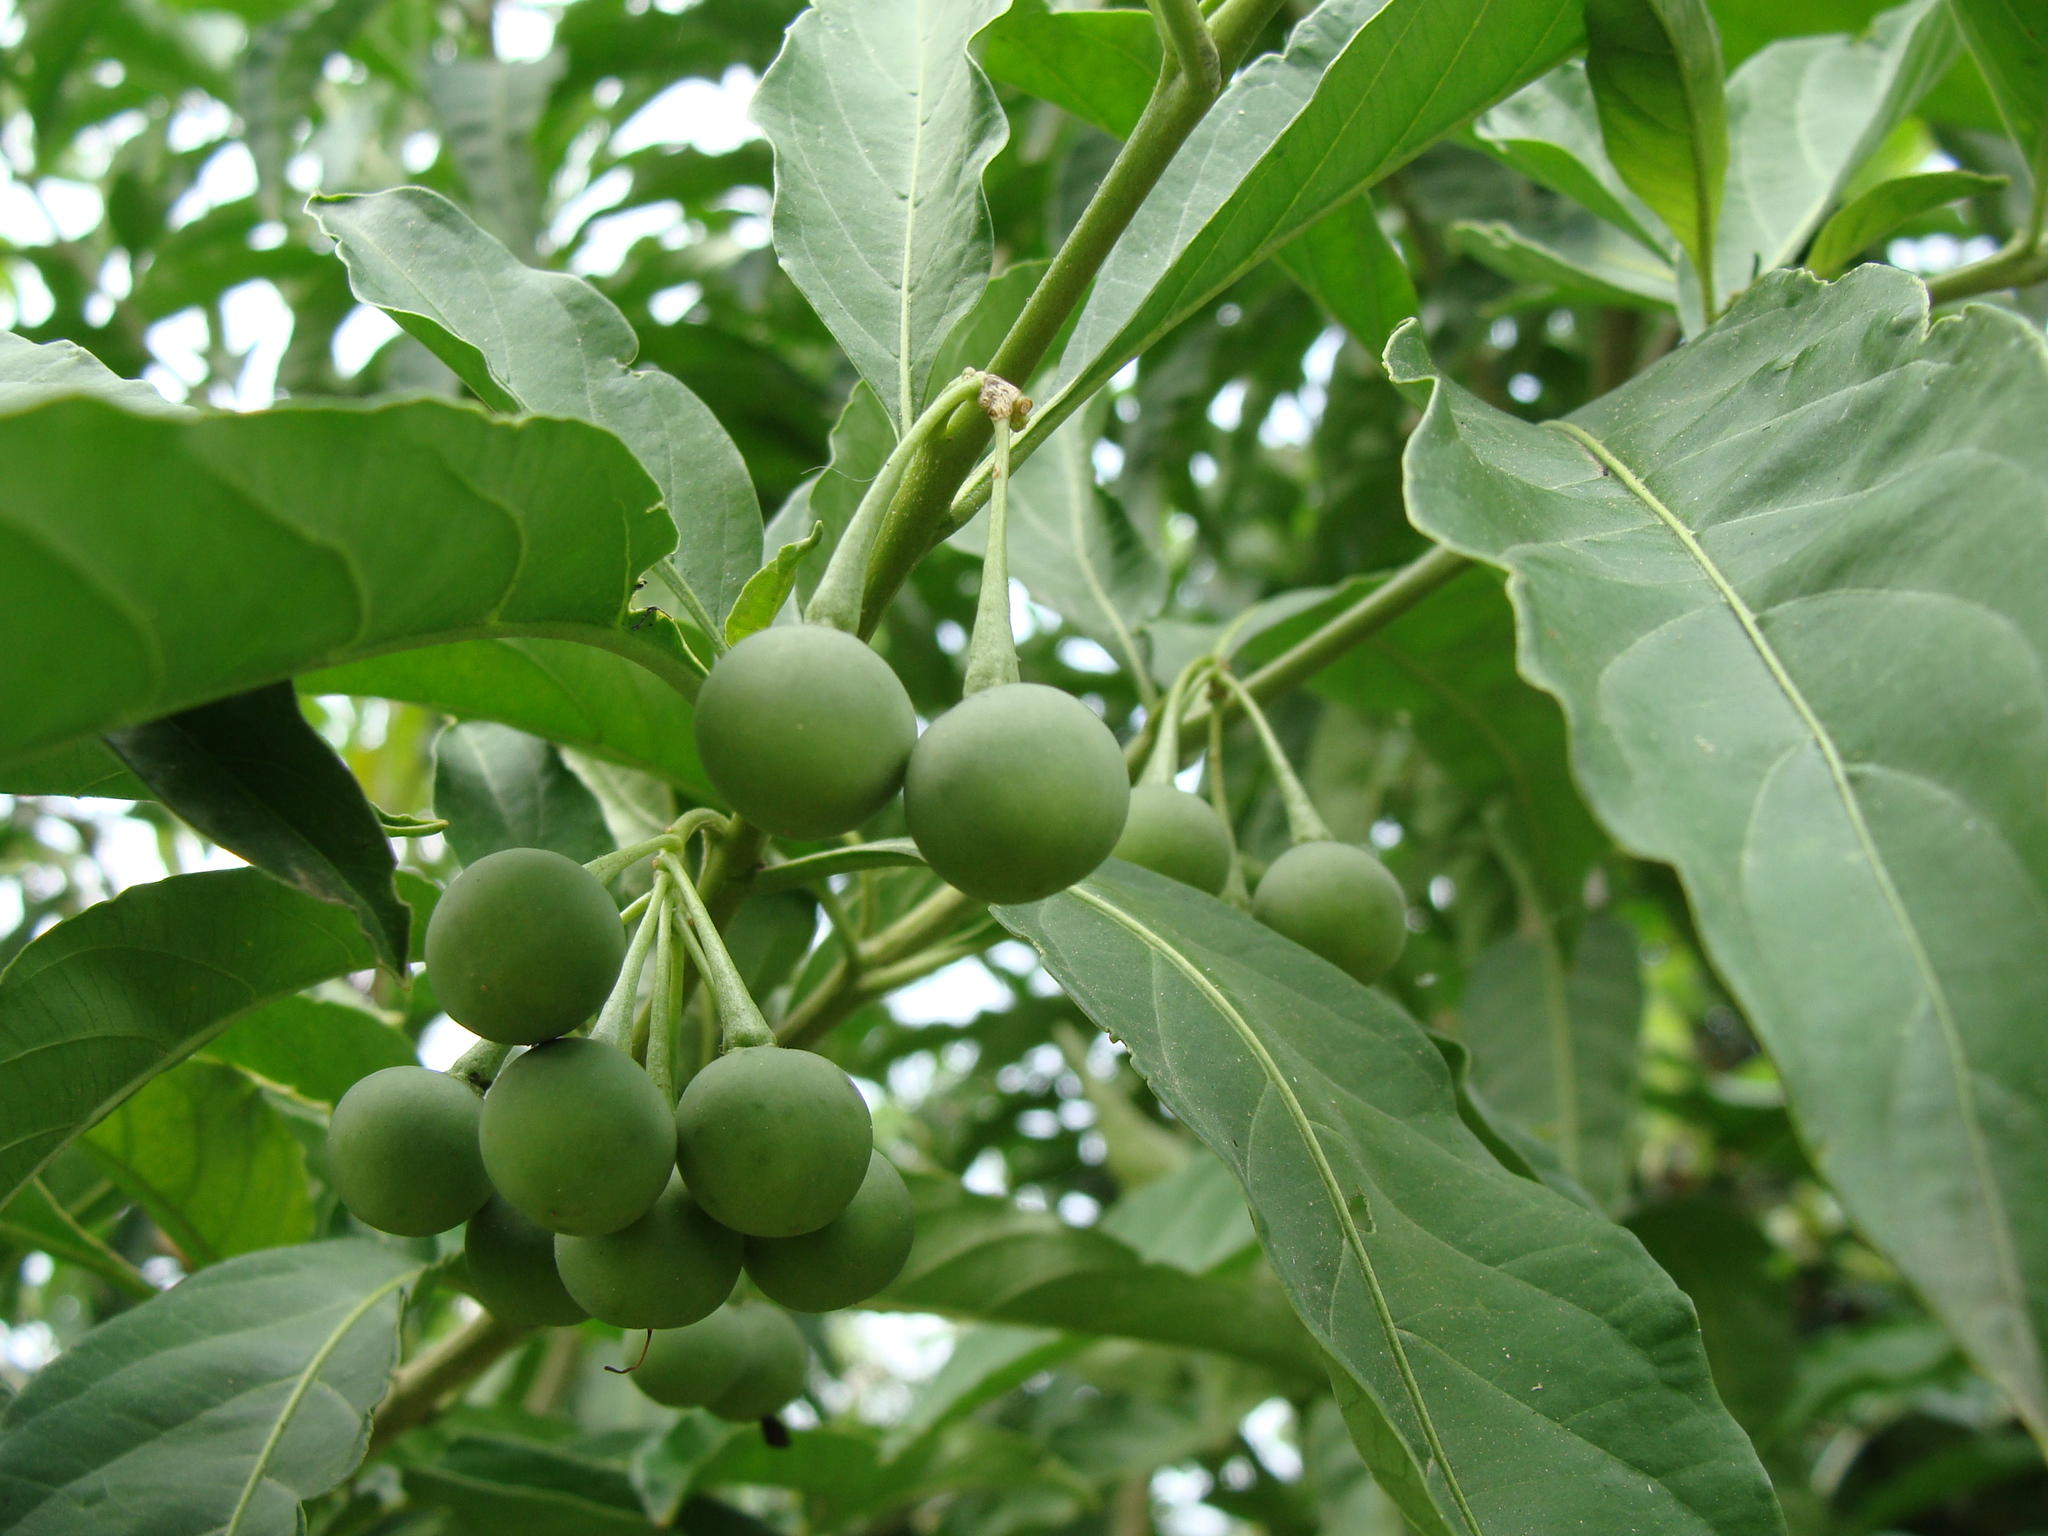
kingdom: Plantae
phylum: Tracheophyta
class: Magnoliopsida
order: Solanales
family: Solanaceae
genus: Solanum
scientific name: Solanum aphyodendron
